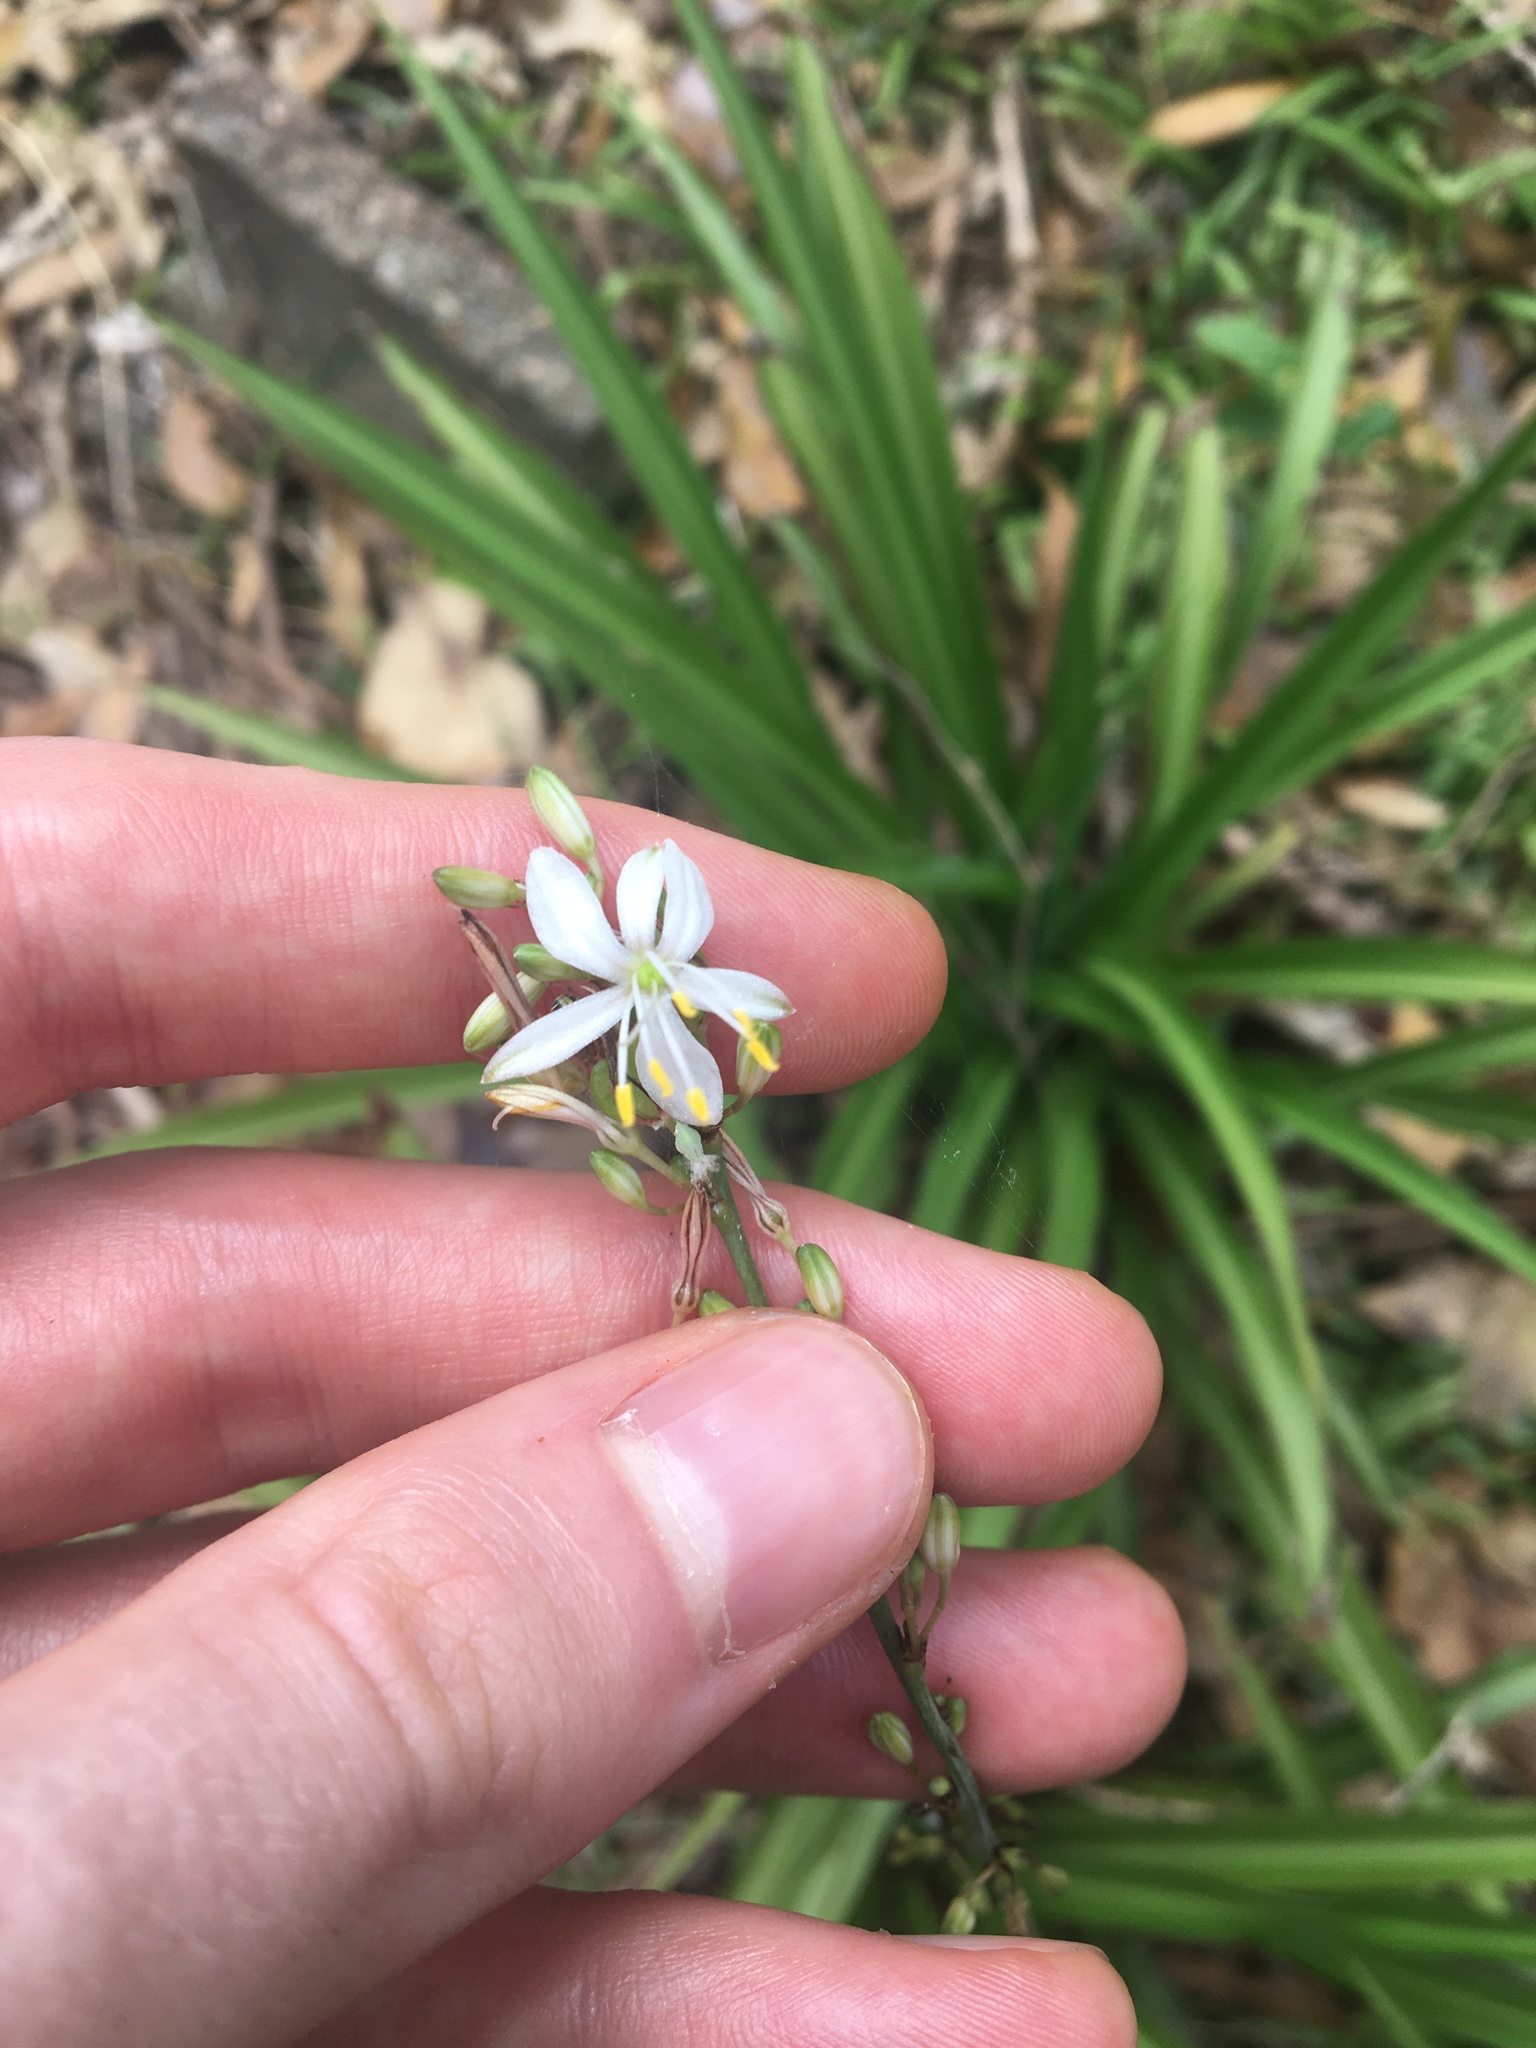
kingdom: Plantae
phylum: Tracheophyta
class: Liliopsida
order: Asparagales
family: Asparagaceae
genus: Chlorophytum
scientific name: Chlorophytum comosum
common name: Spider plant
